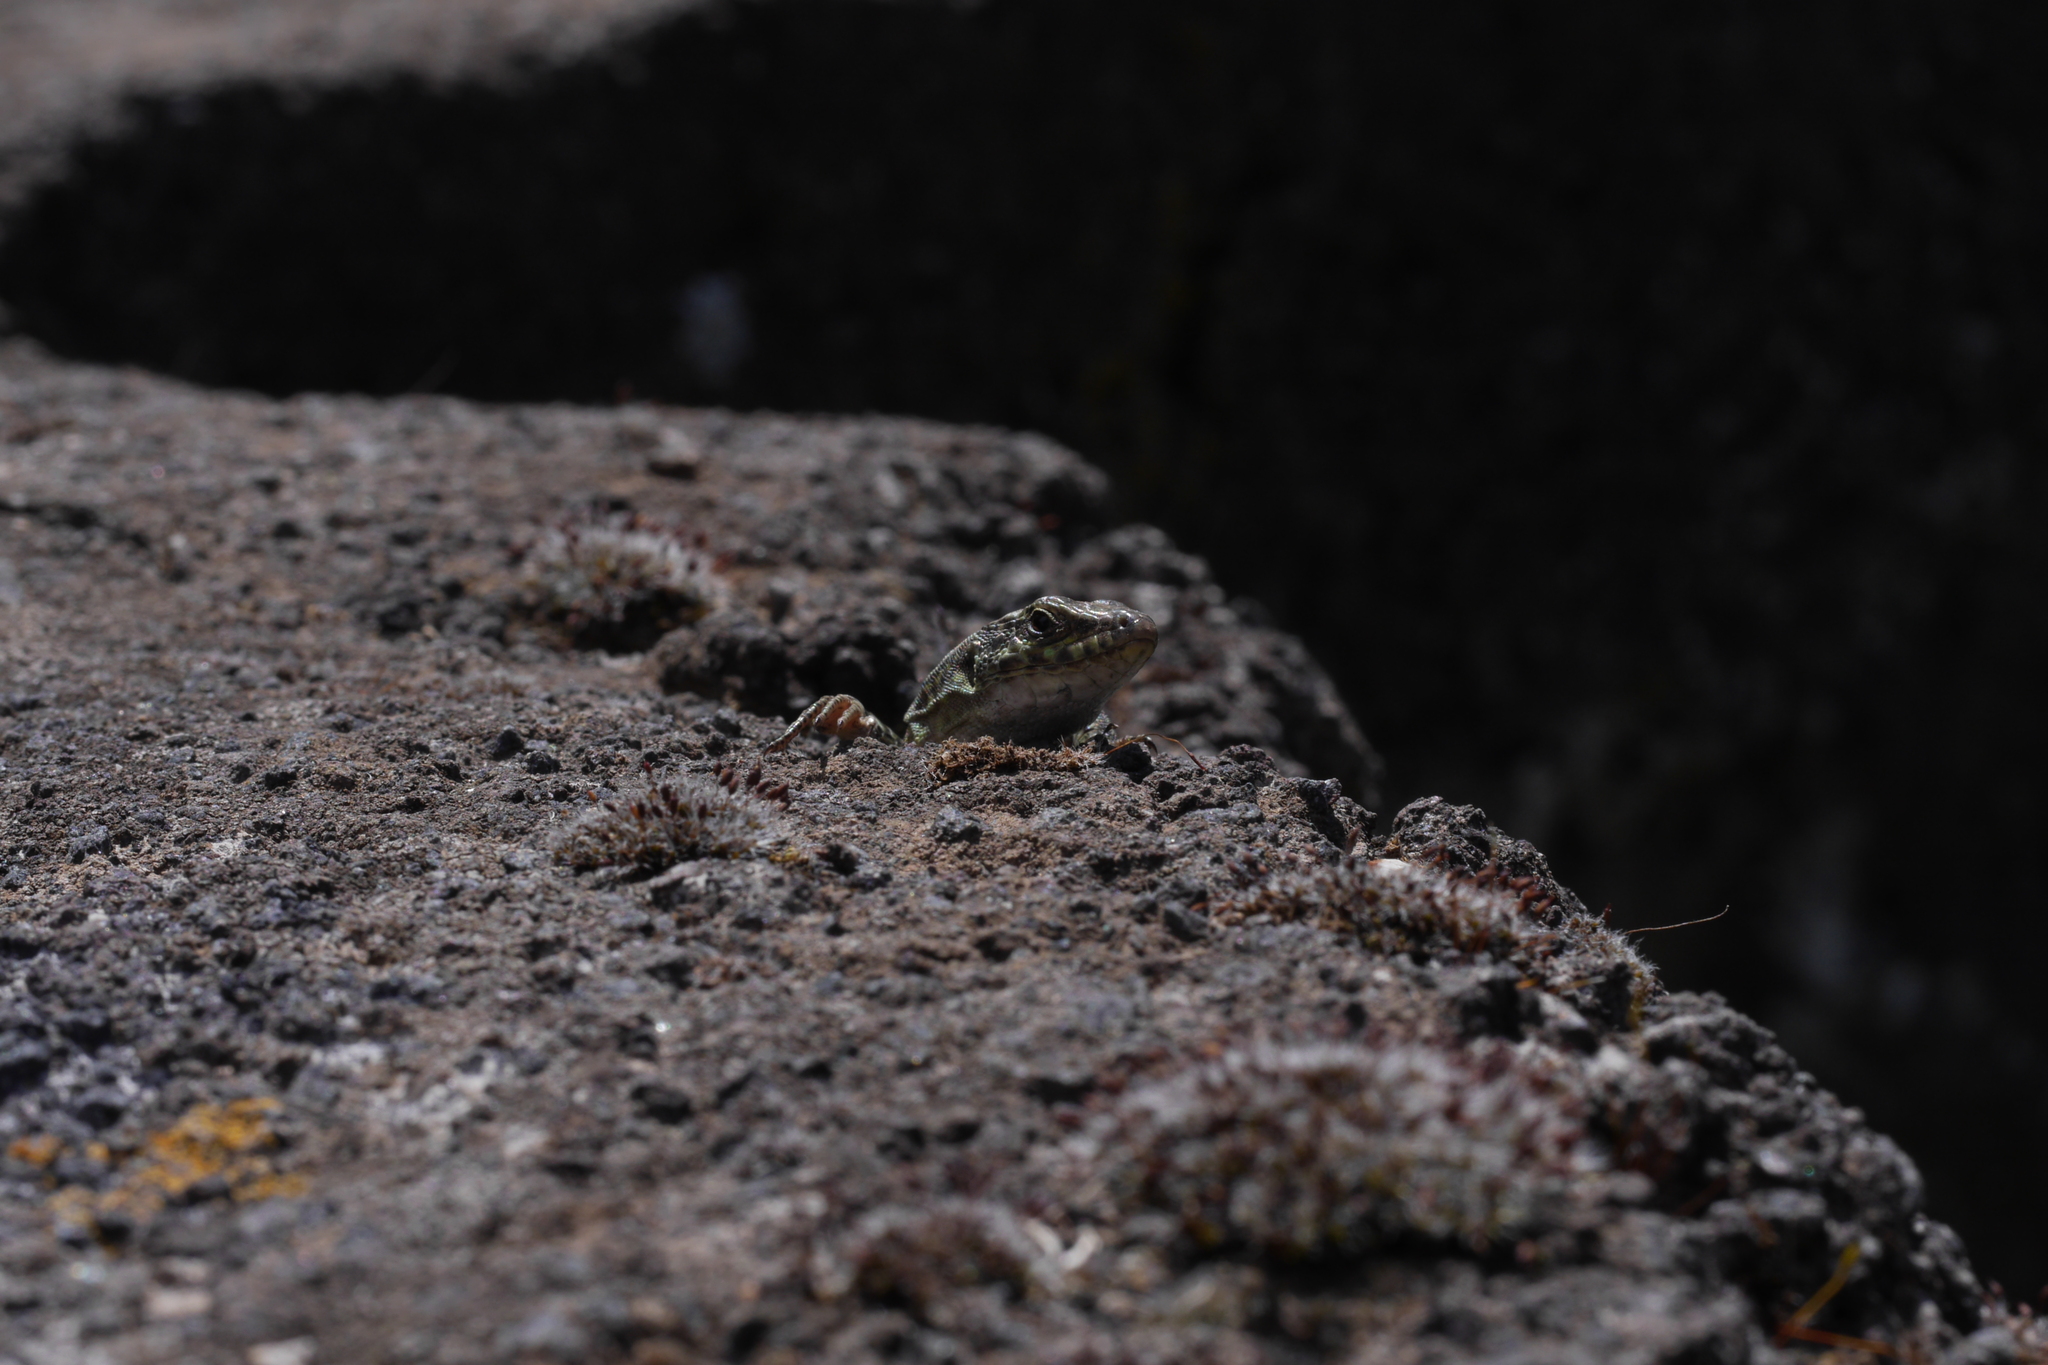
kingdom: Animalia
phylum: Chordata
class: Squamata
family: Lacertidae
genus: Podarcis
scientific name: Podarcis siculus
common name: Italian wall lizard
